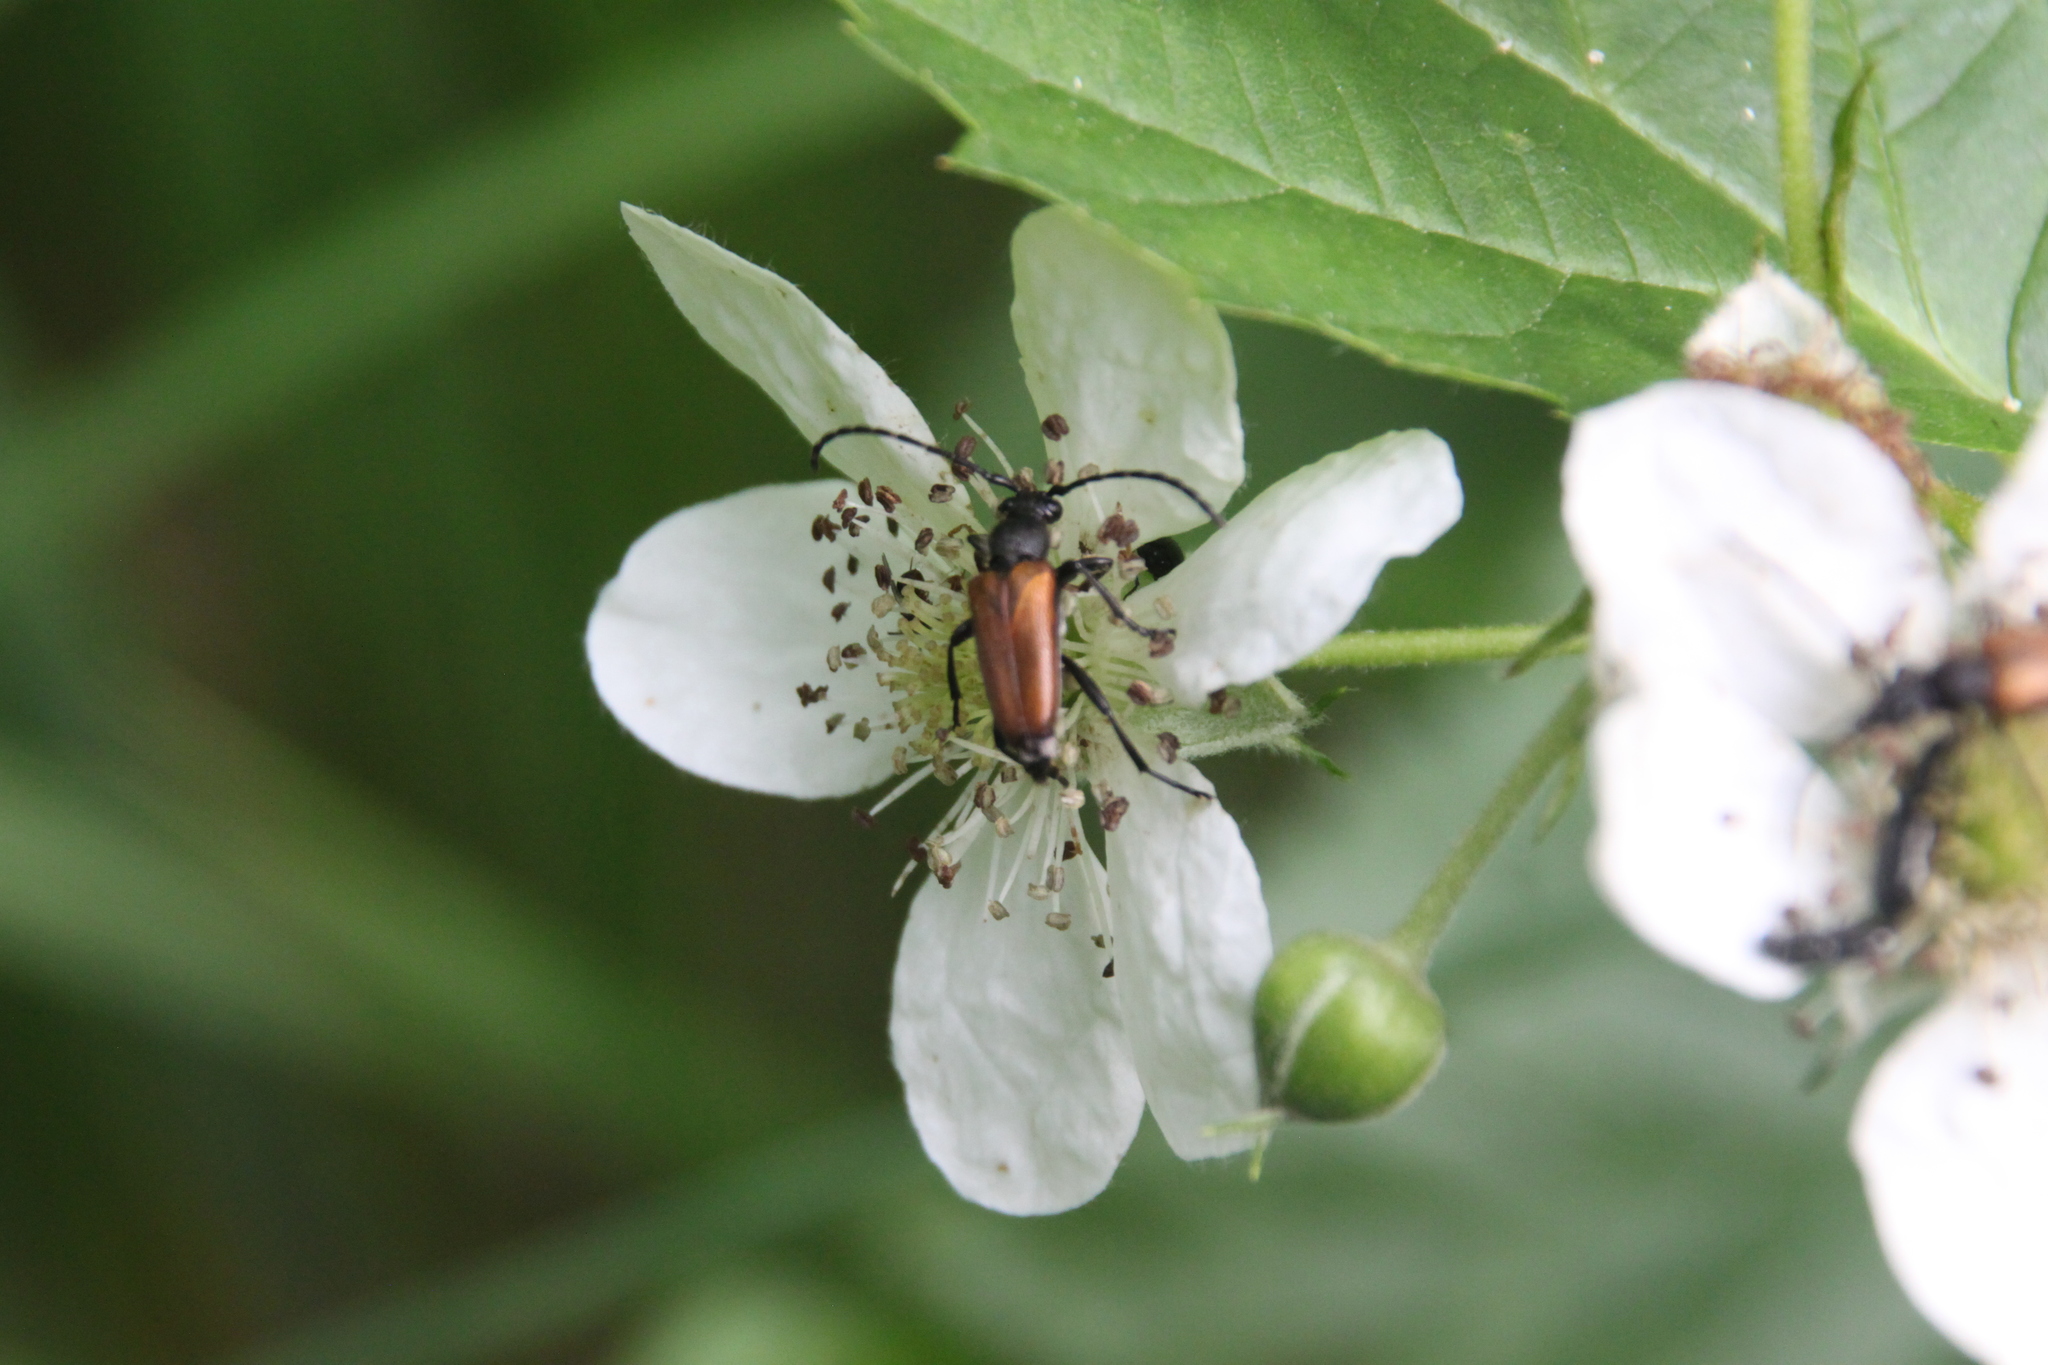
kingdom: Animalia
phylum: Arthropoda
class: Insecta
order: Coleoptera
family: Cerambycidae
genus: Paracorymbia
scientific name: Paracorymbia maculicornis
